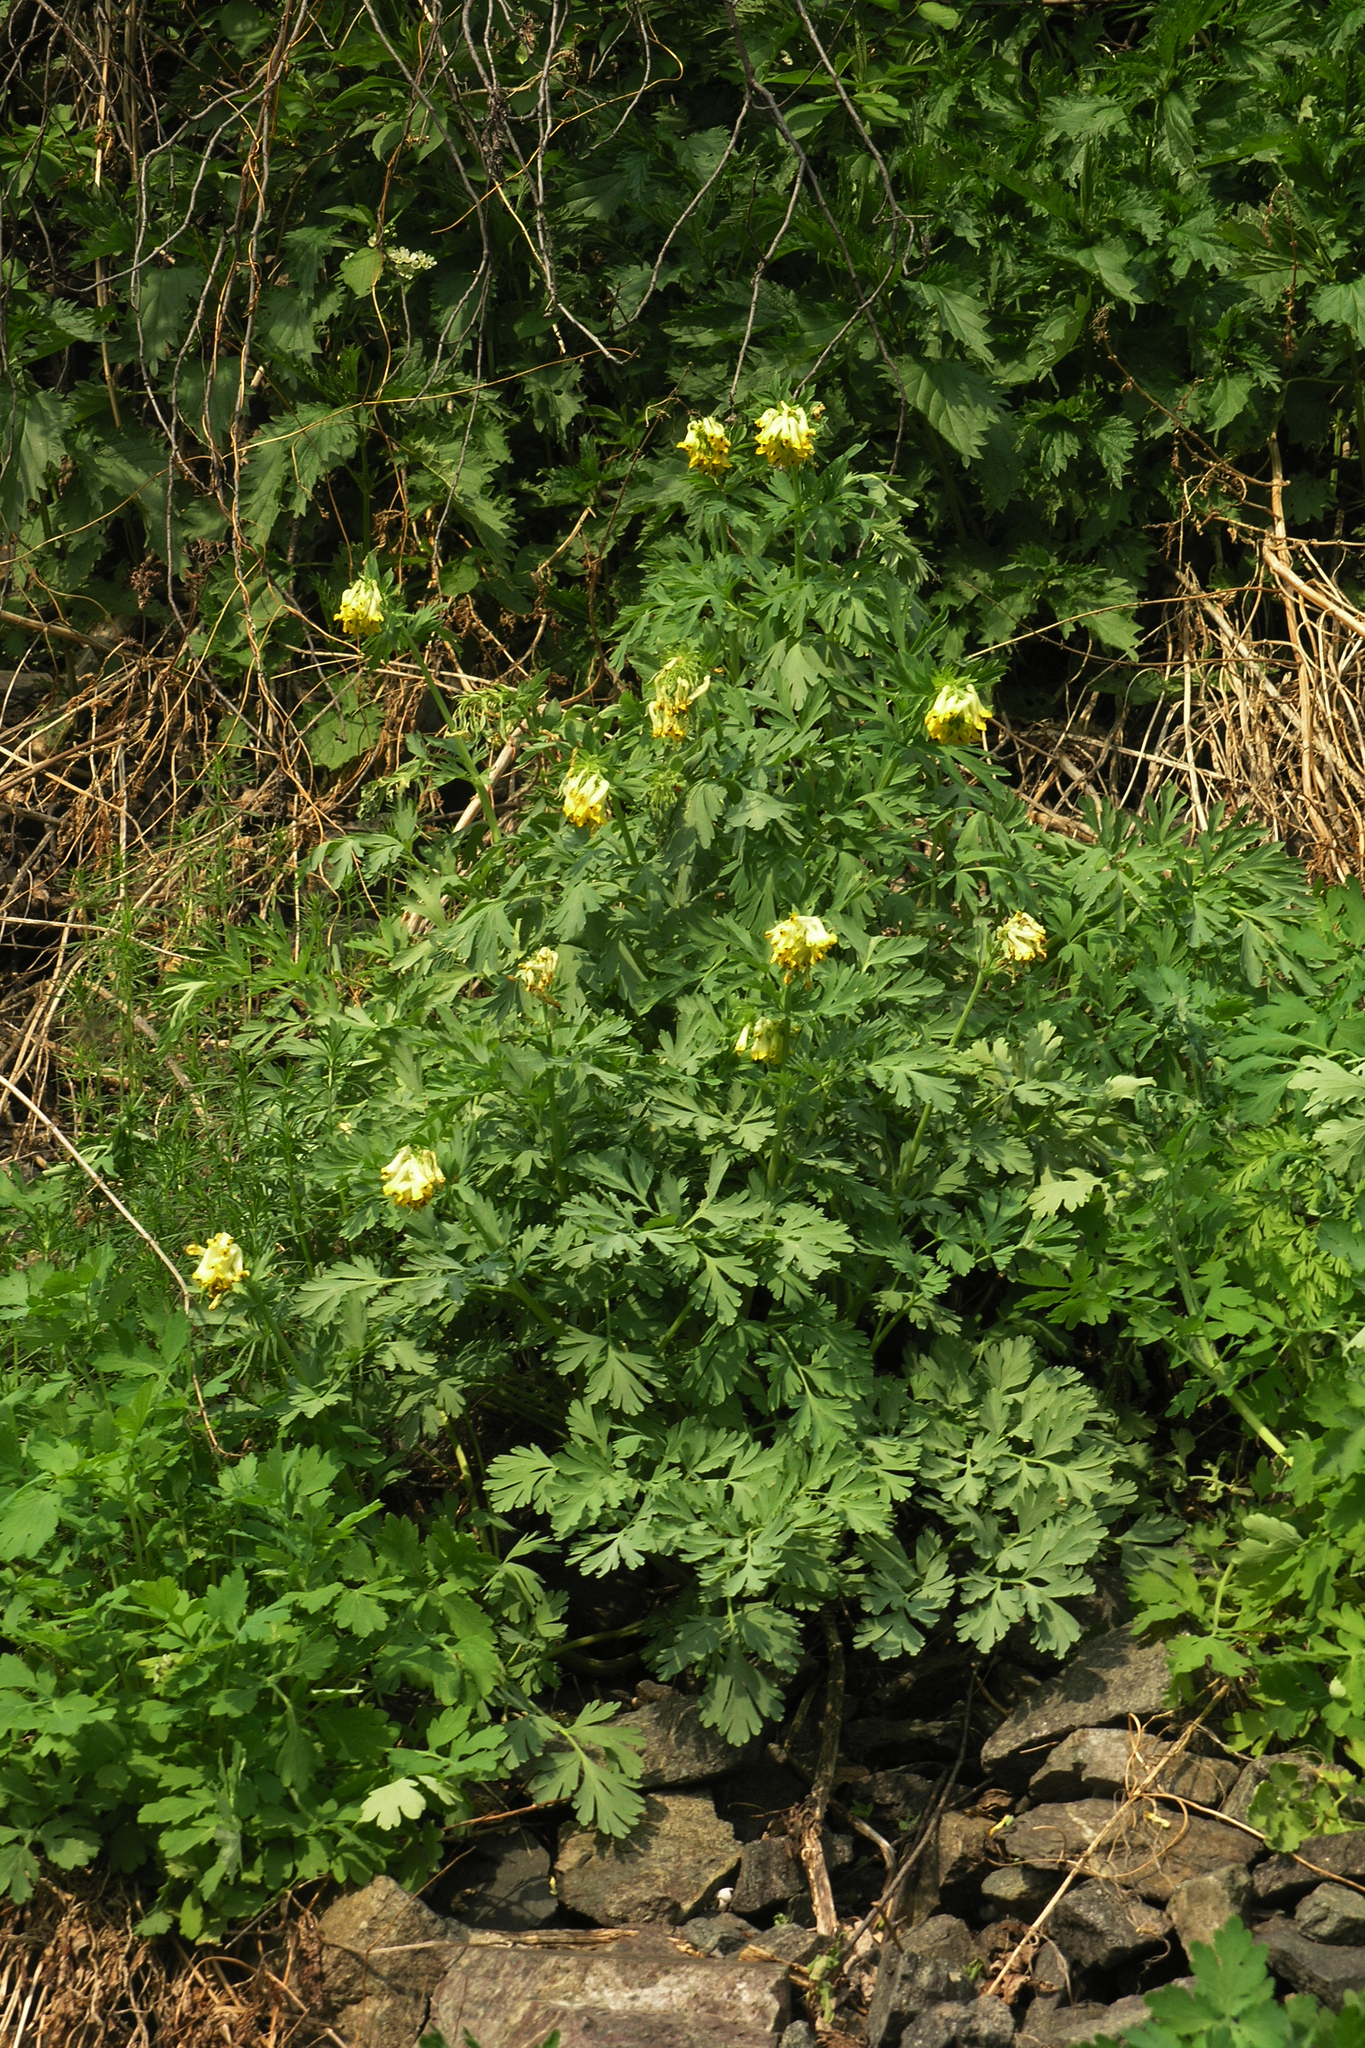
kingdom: Plantae
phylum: Tracheophyta
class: Magnoliopsida
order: Ranunculales
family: Papaveraceae
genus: Corydalis
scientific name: Corydalis nobilis
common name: Siberian corydalis
